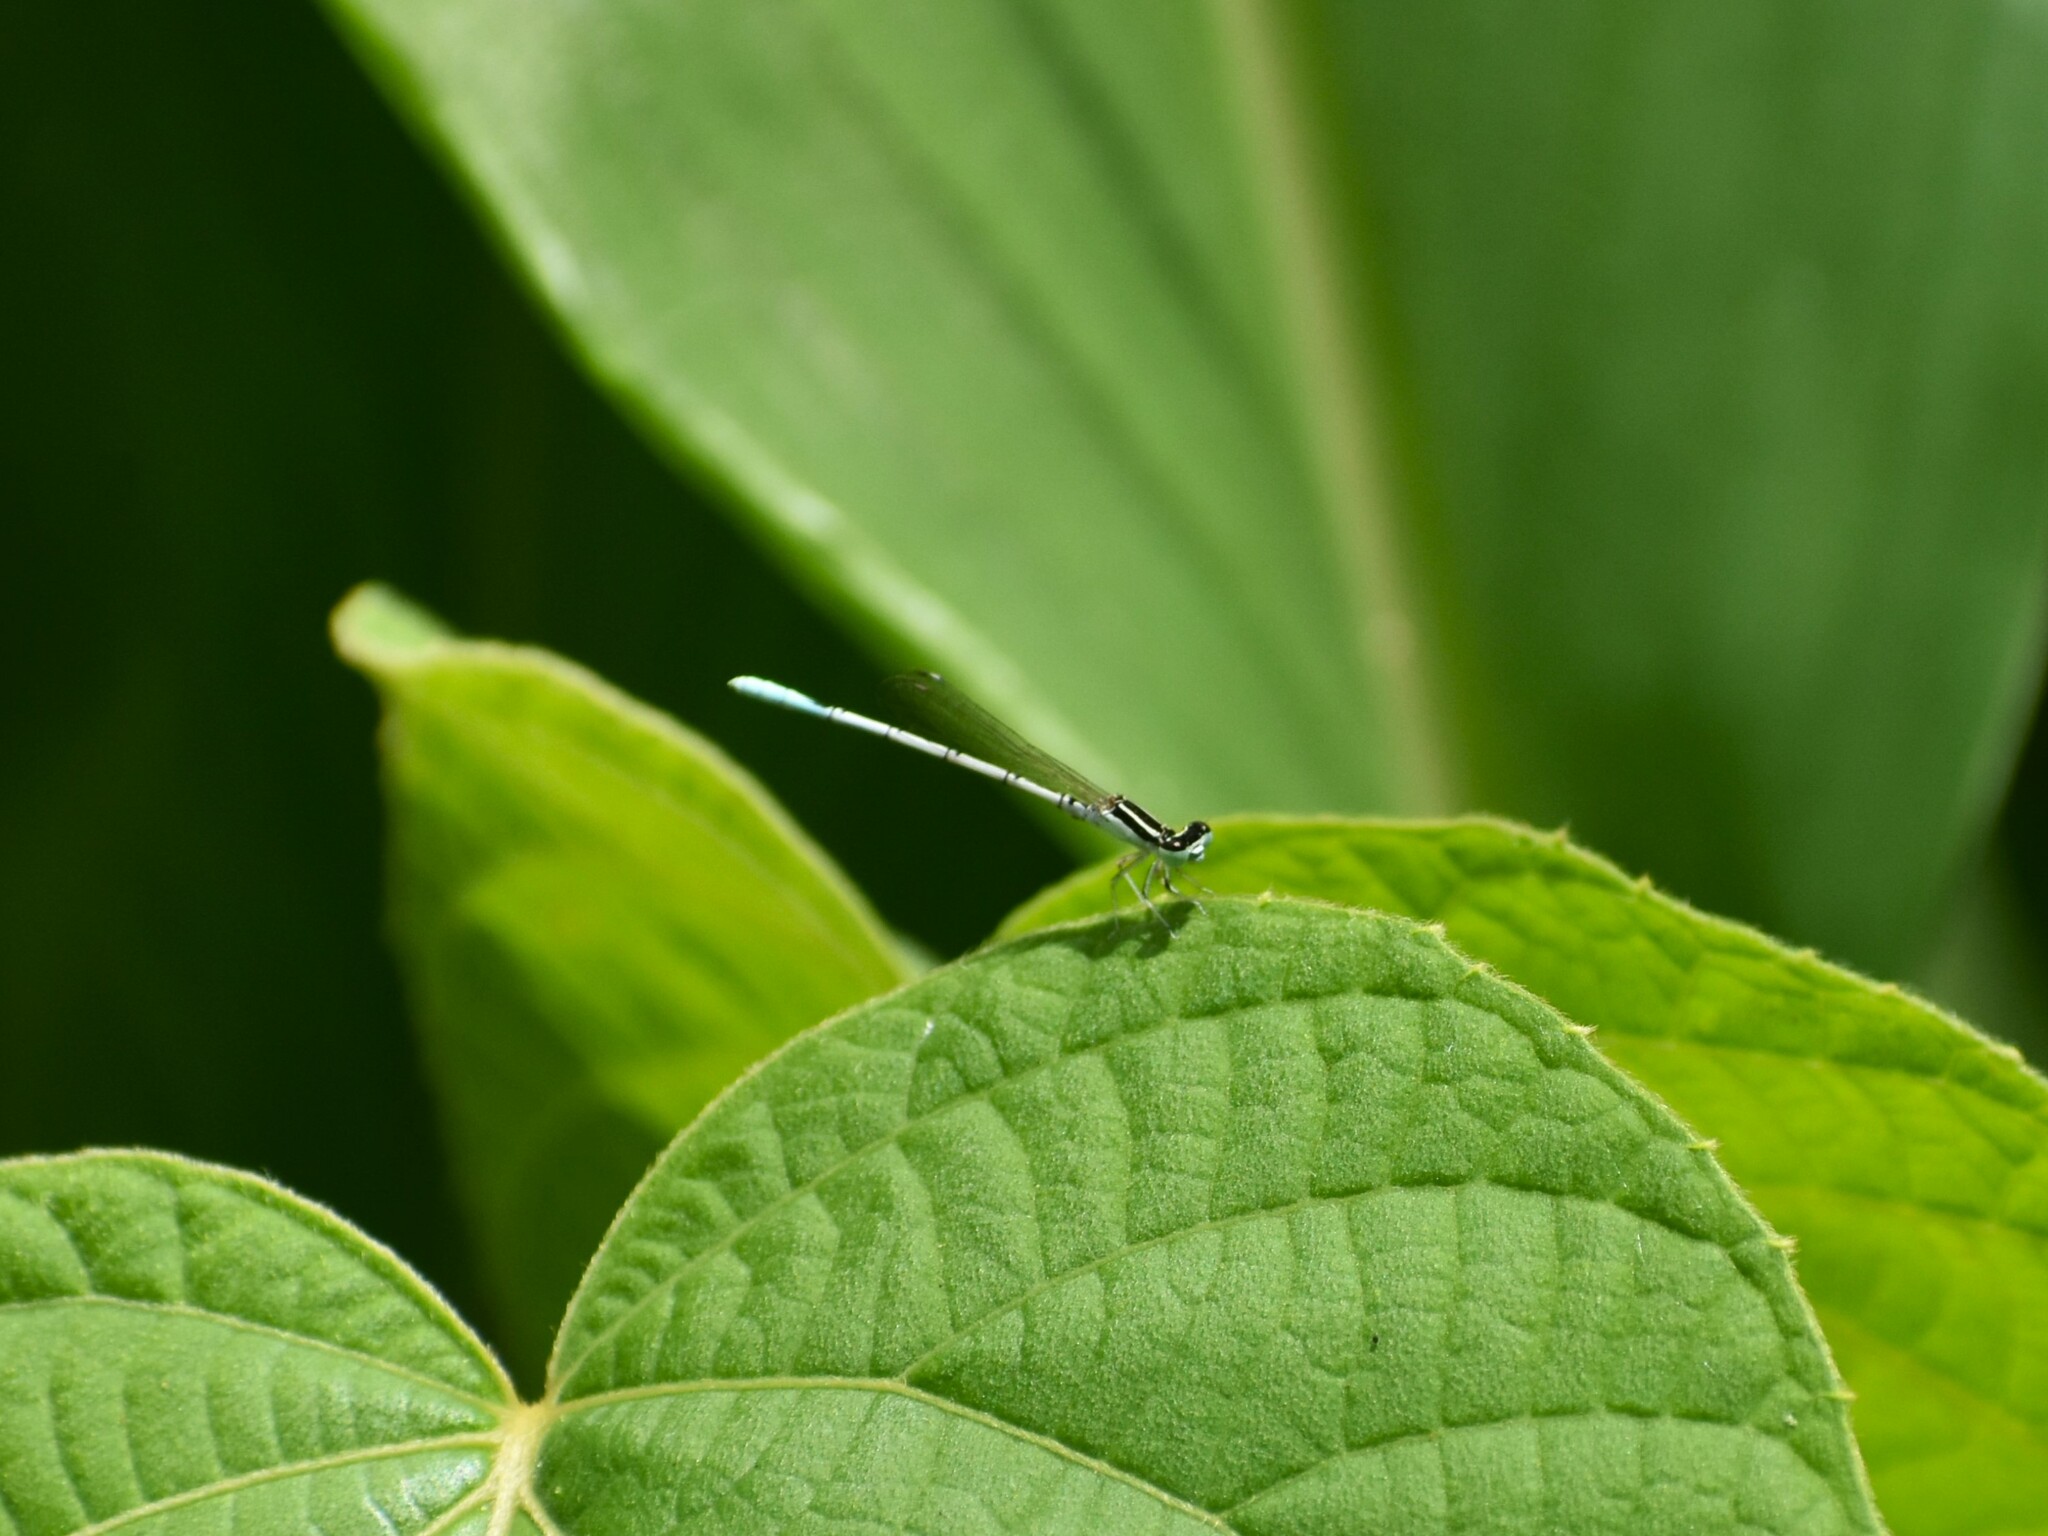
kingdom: Animalia
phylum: Arthropoda
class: Insecta
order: Odonata
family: Coenagrionidae
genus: Agriocnemis
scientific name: Agriocnemis pieris
